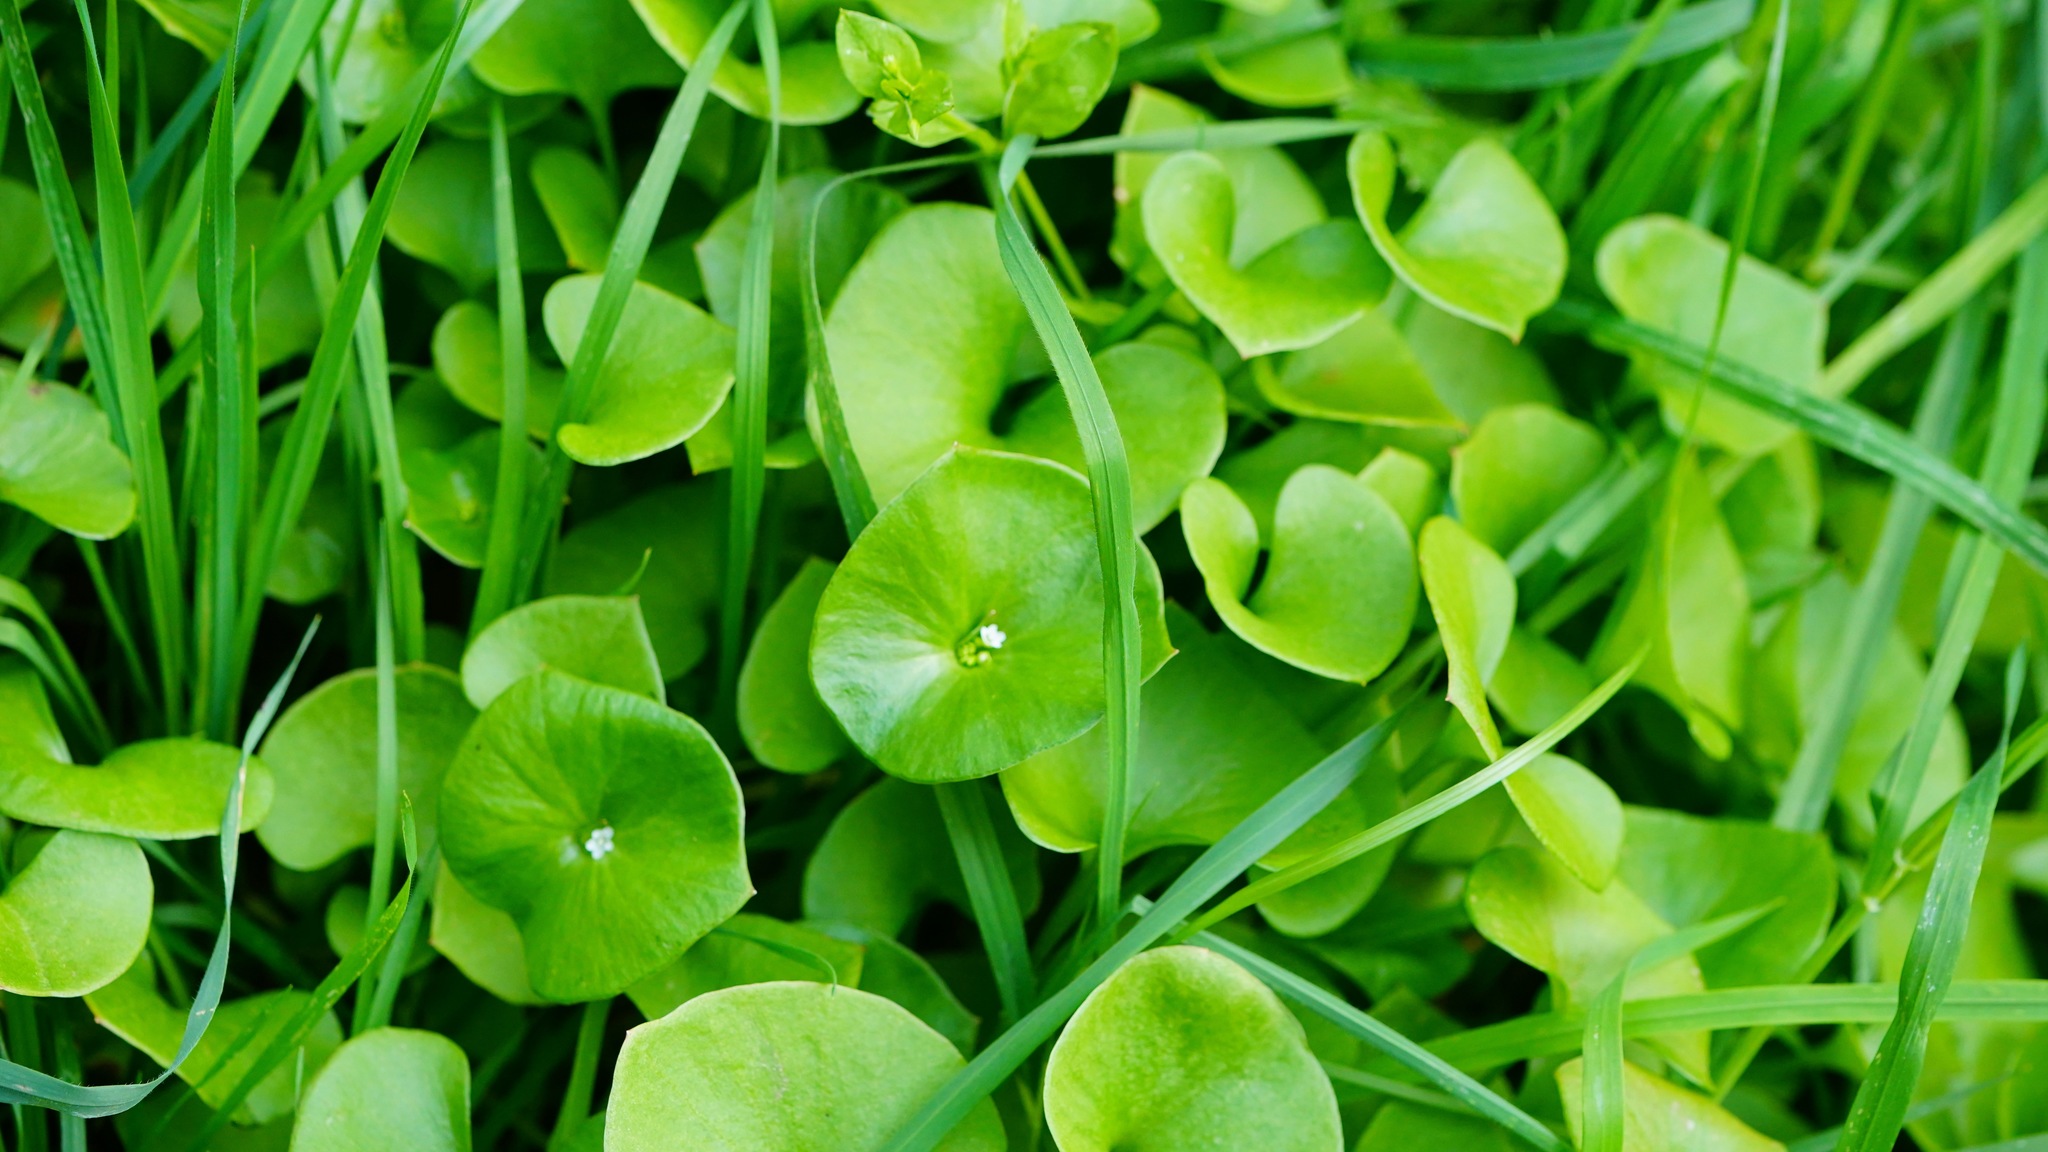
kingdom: Plantae
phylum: Tracheophyta
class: Magnoliopsida
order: Caryophyllales
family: Montiaceae
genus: Claytonia
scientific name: Claytonia perfoliata
